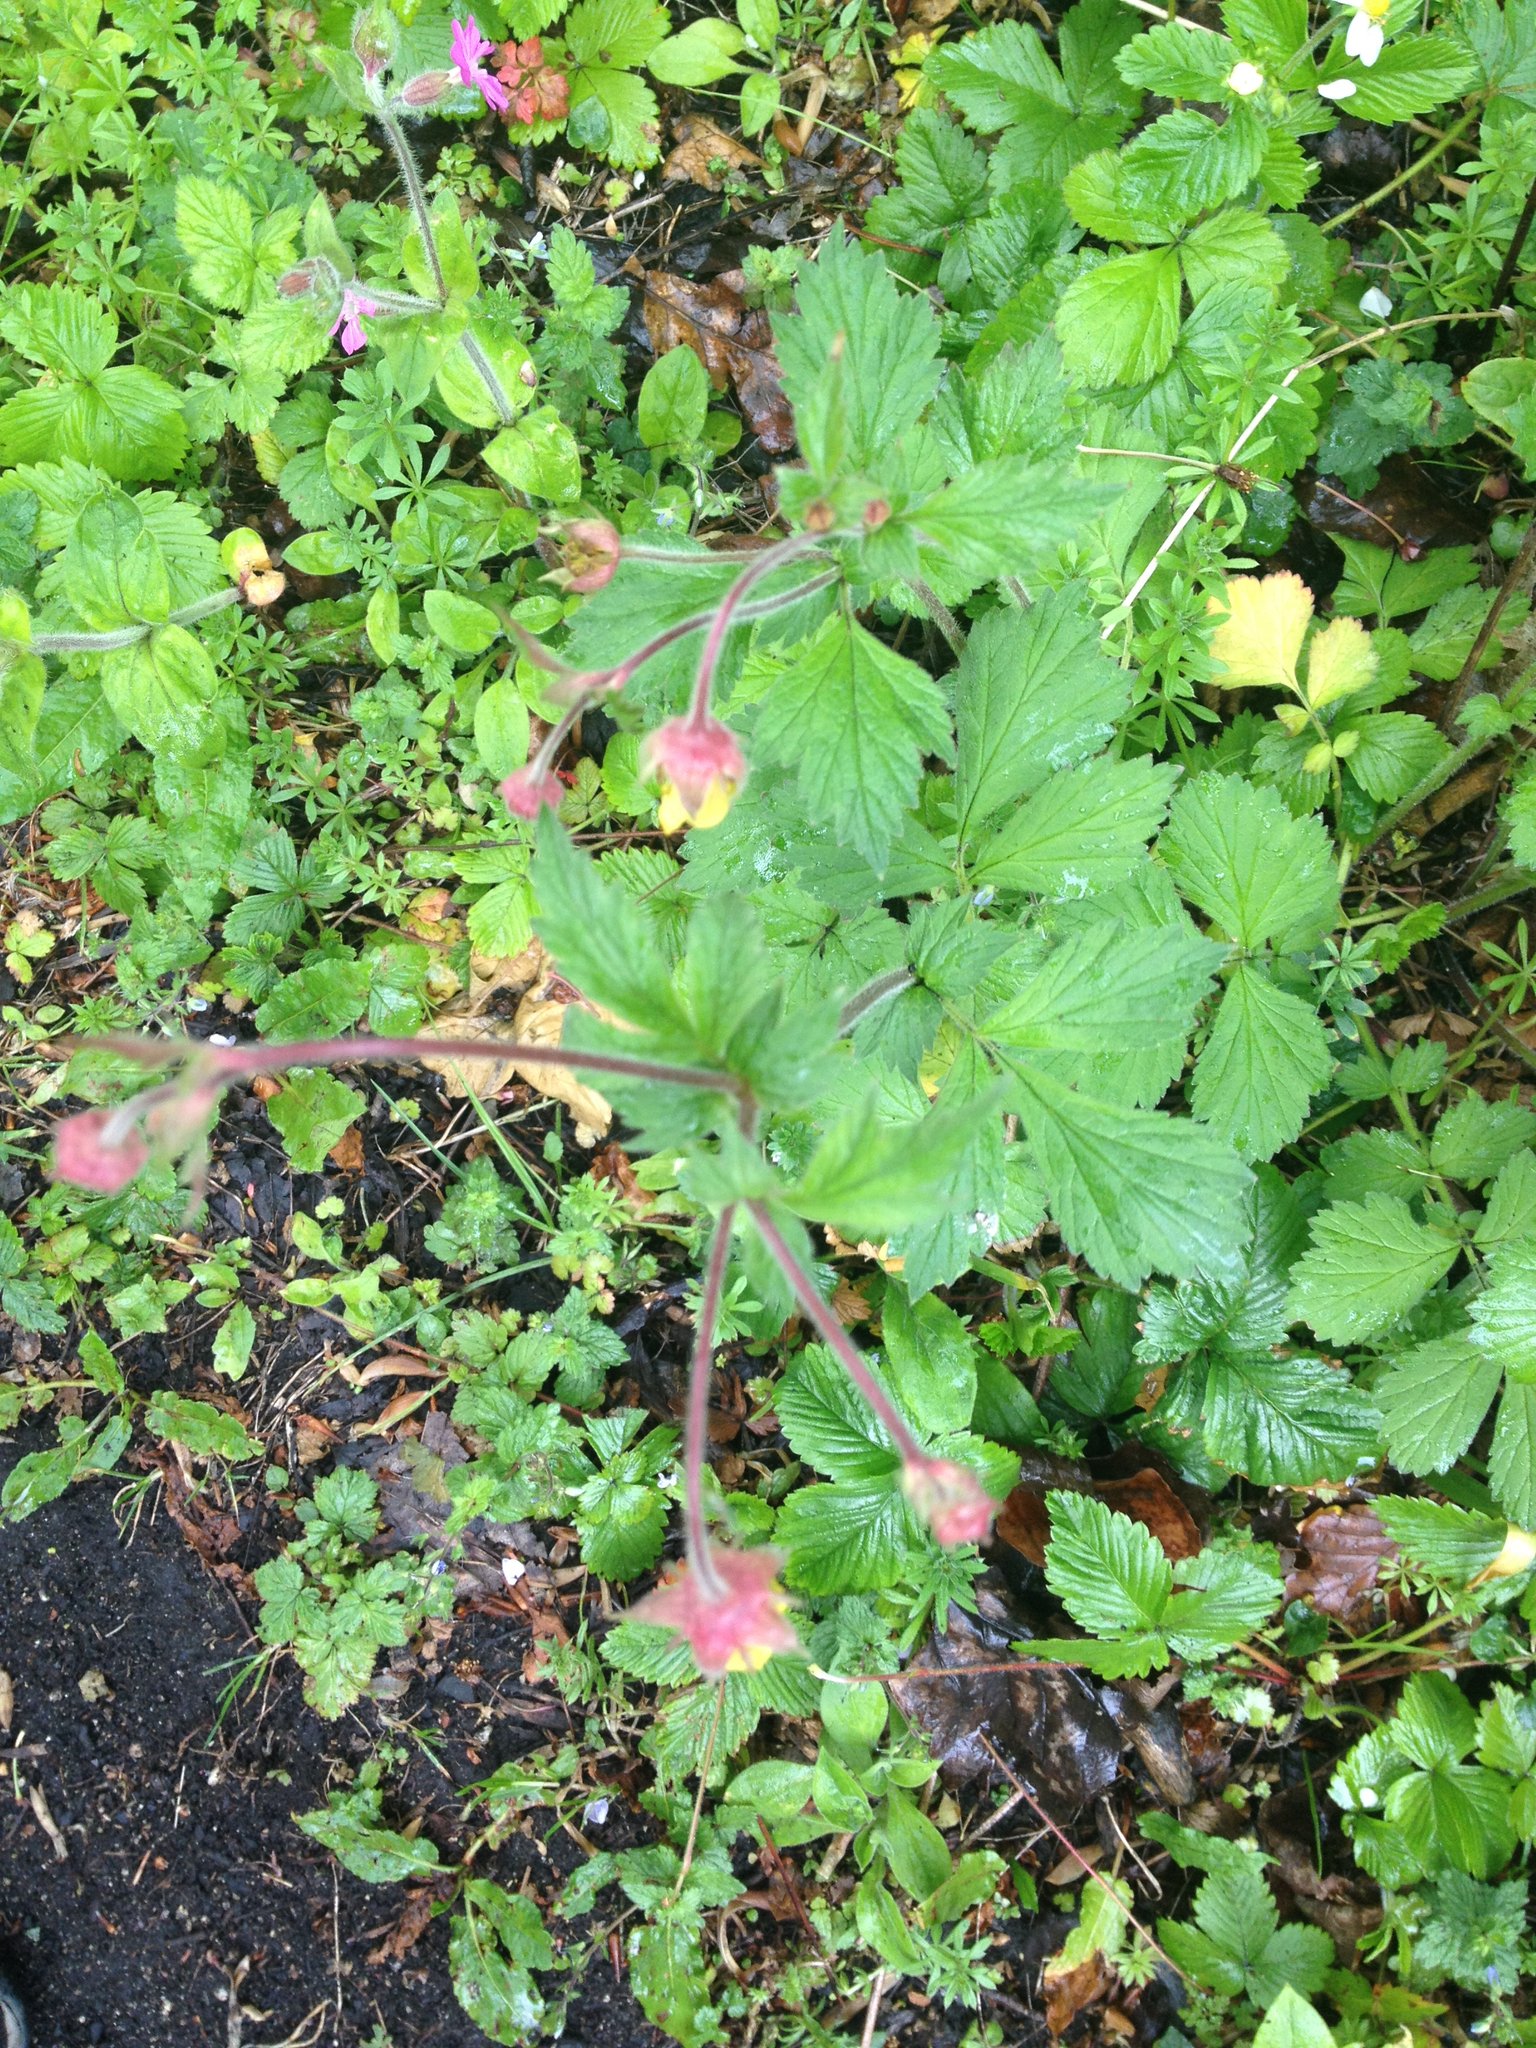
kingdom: Plantae
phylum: Tracheophyta
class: Magnoliopsida
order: Rosales
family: Rosaceae
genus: Geum
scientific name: Geum intermedium
